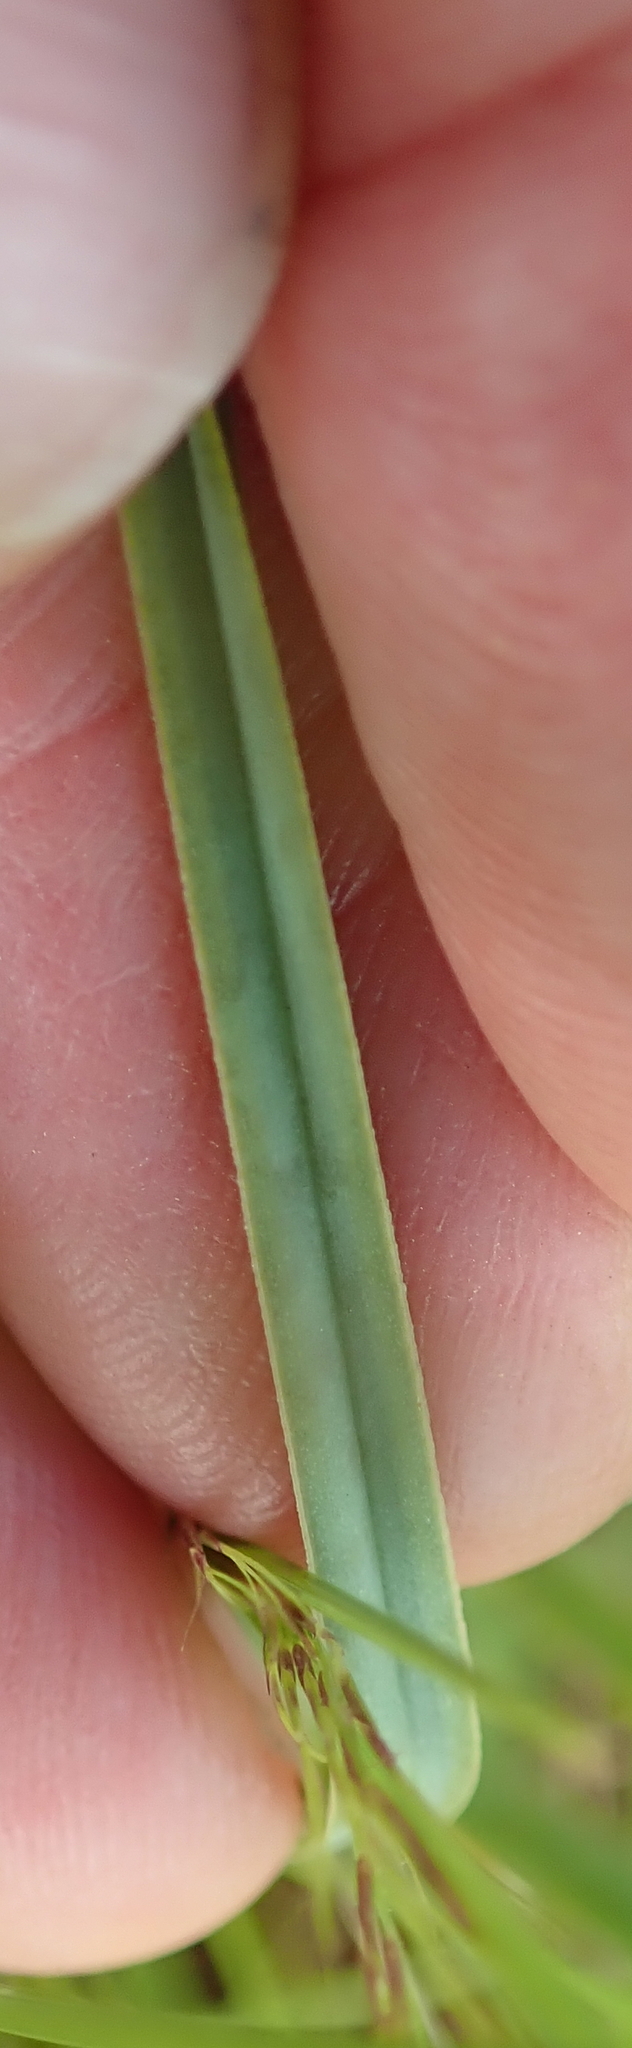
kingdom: Plantae
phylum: Tracheophyta
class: Liliopsida
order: Asparagales
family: Asphodelaceae
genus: Kniphofia
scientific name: Kniphofia buchananii
